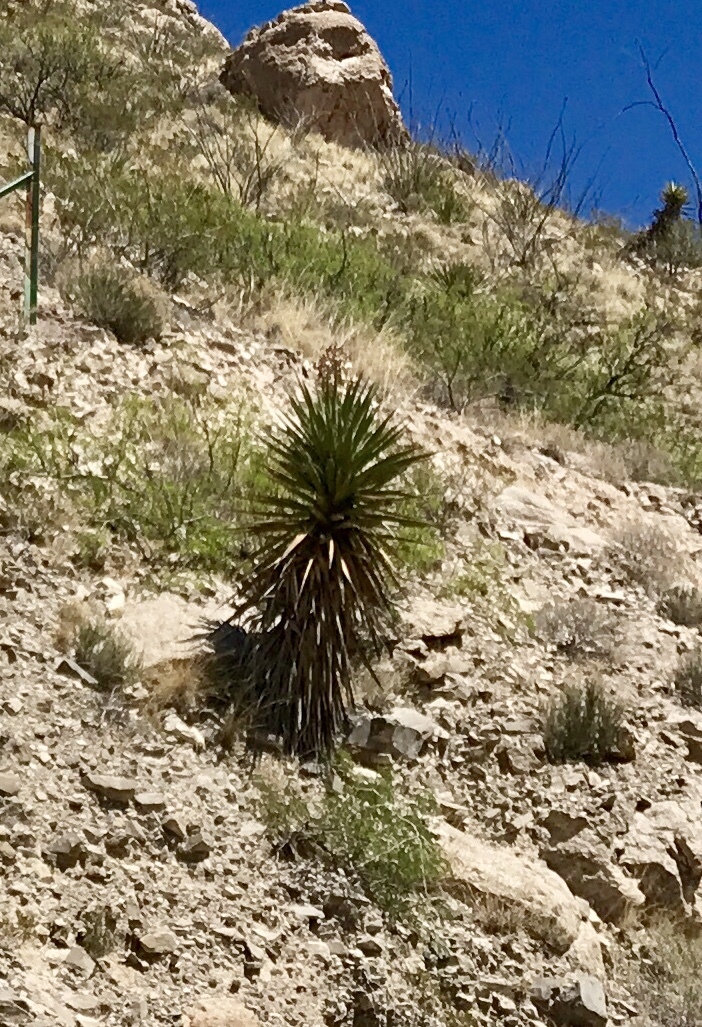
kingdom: Plantae
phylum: Tracheophyta
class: Liliopsida
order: Asparagales
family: Asparagaceae
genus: Yucca
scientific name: Yucca treculiana
